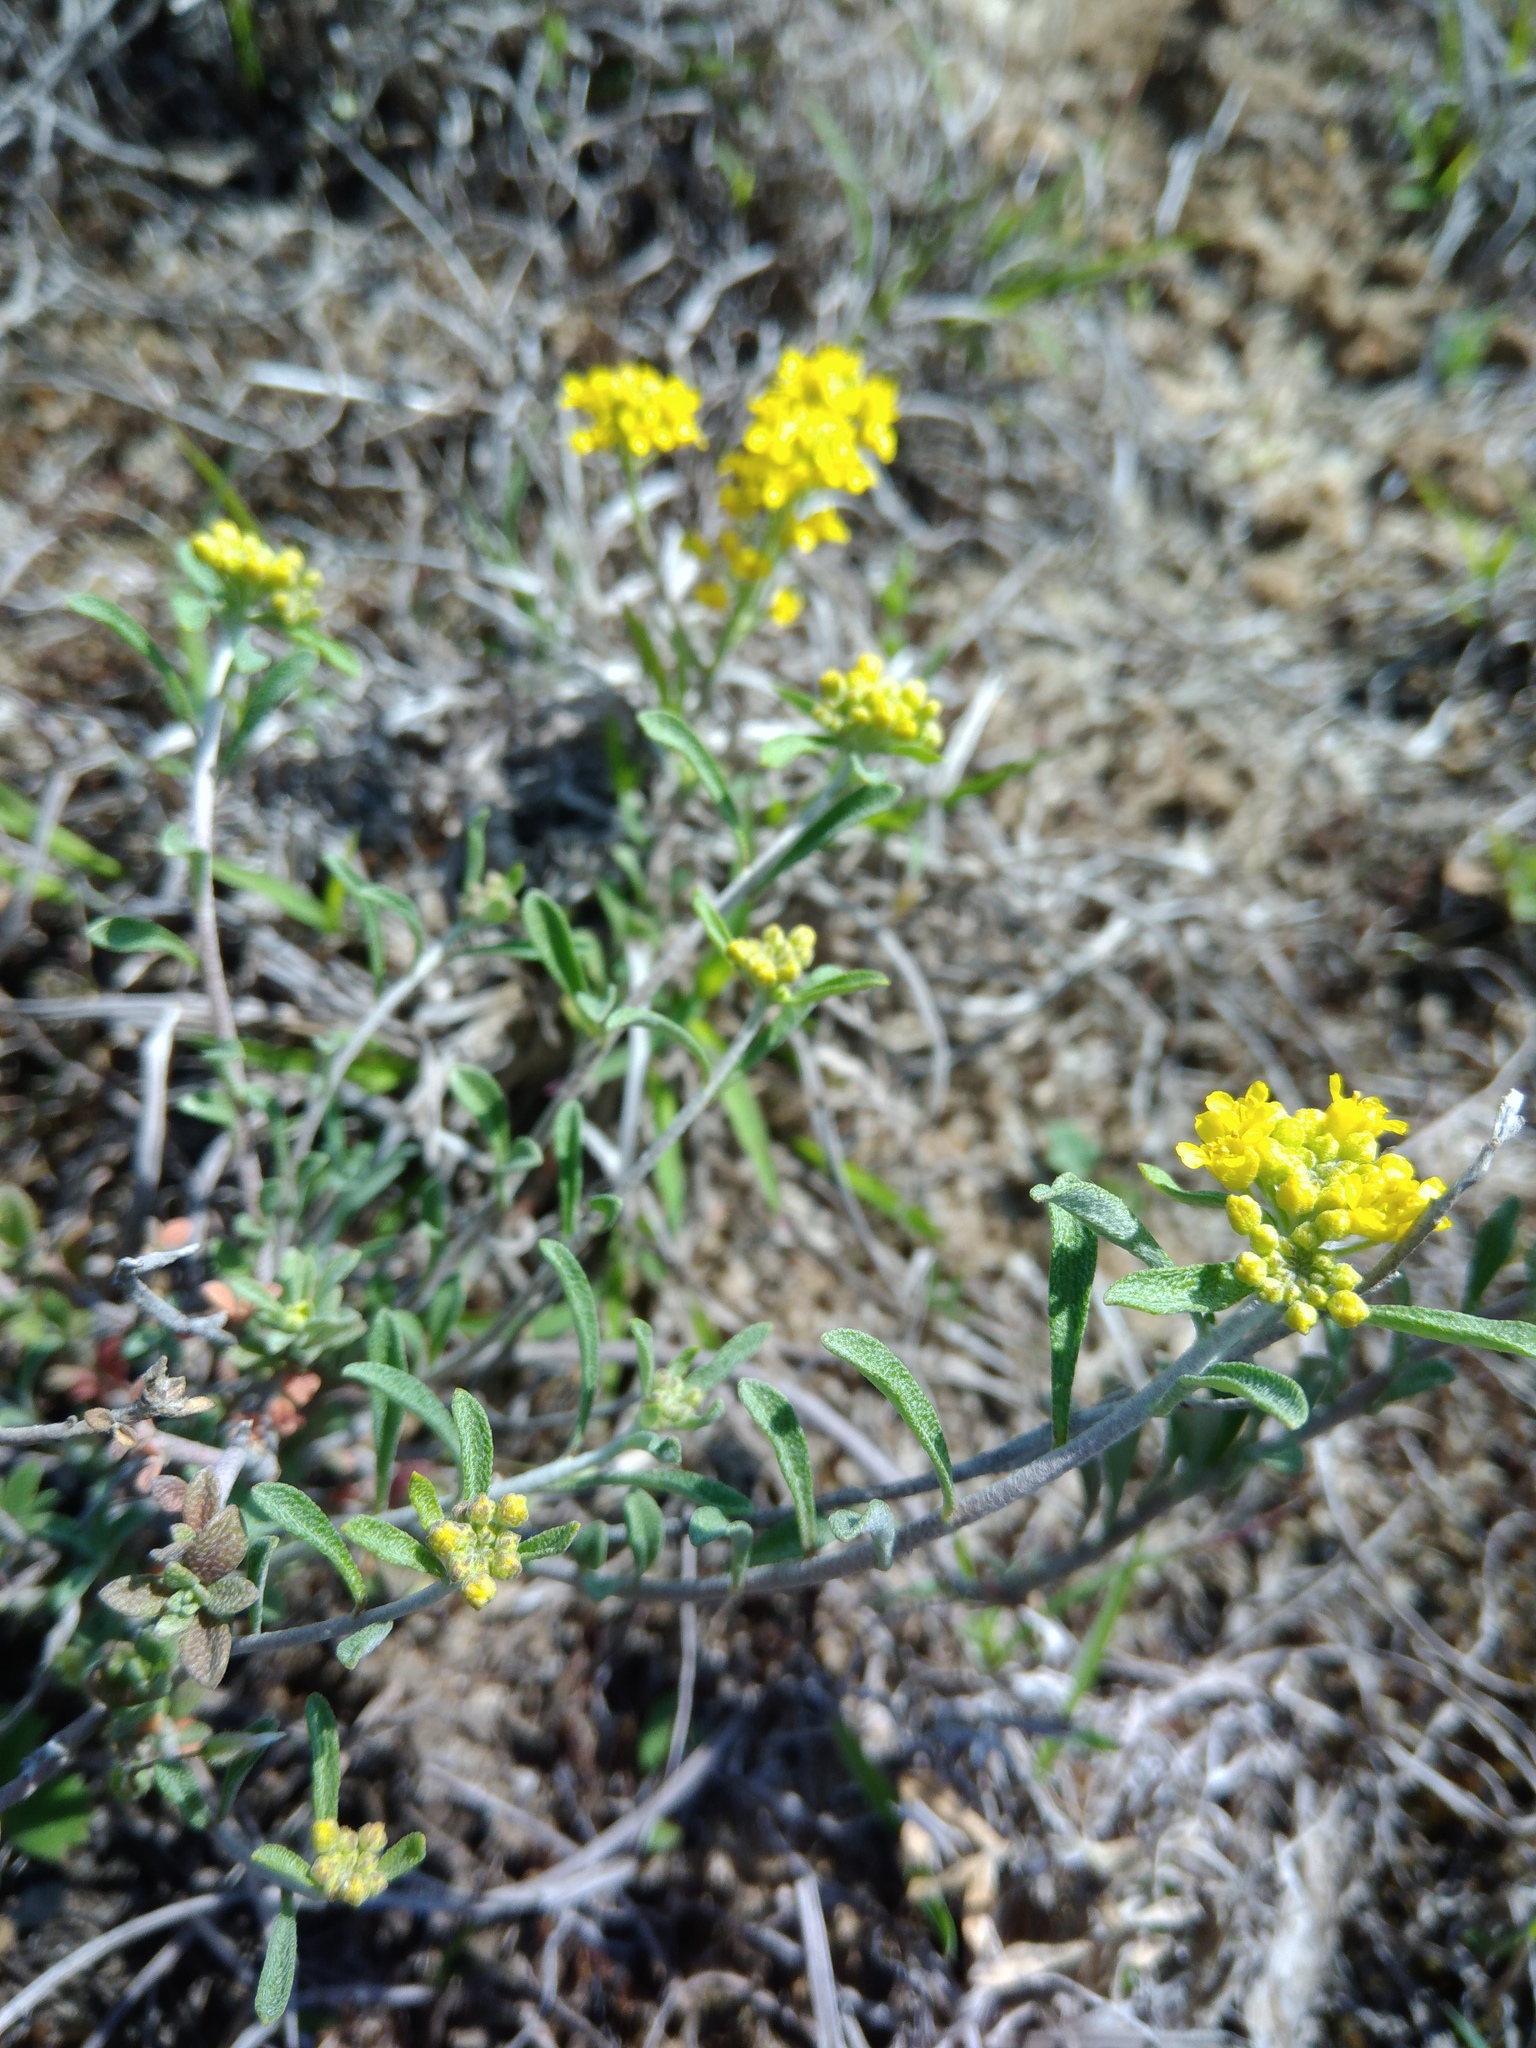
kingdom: Plantae
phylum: Tracheophyta
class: Magnoliopsida
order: Brassicales
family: Brassicaceae
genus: Odontarrhena
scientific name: Odontarrhena tortuosa
